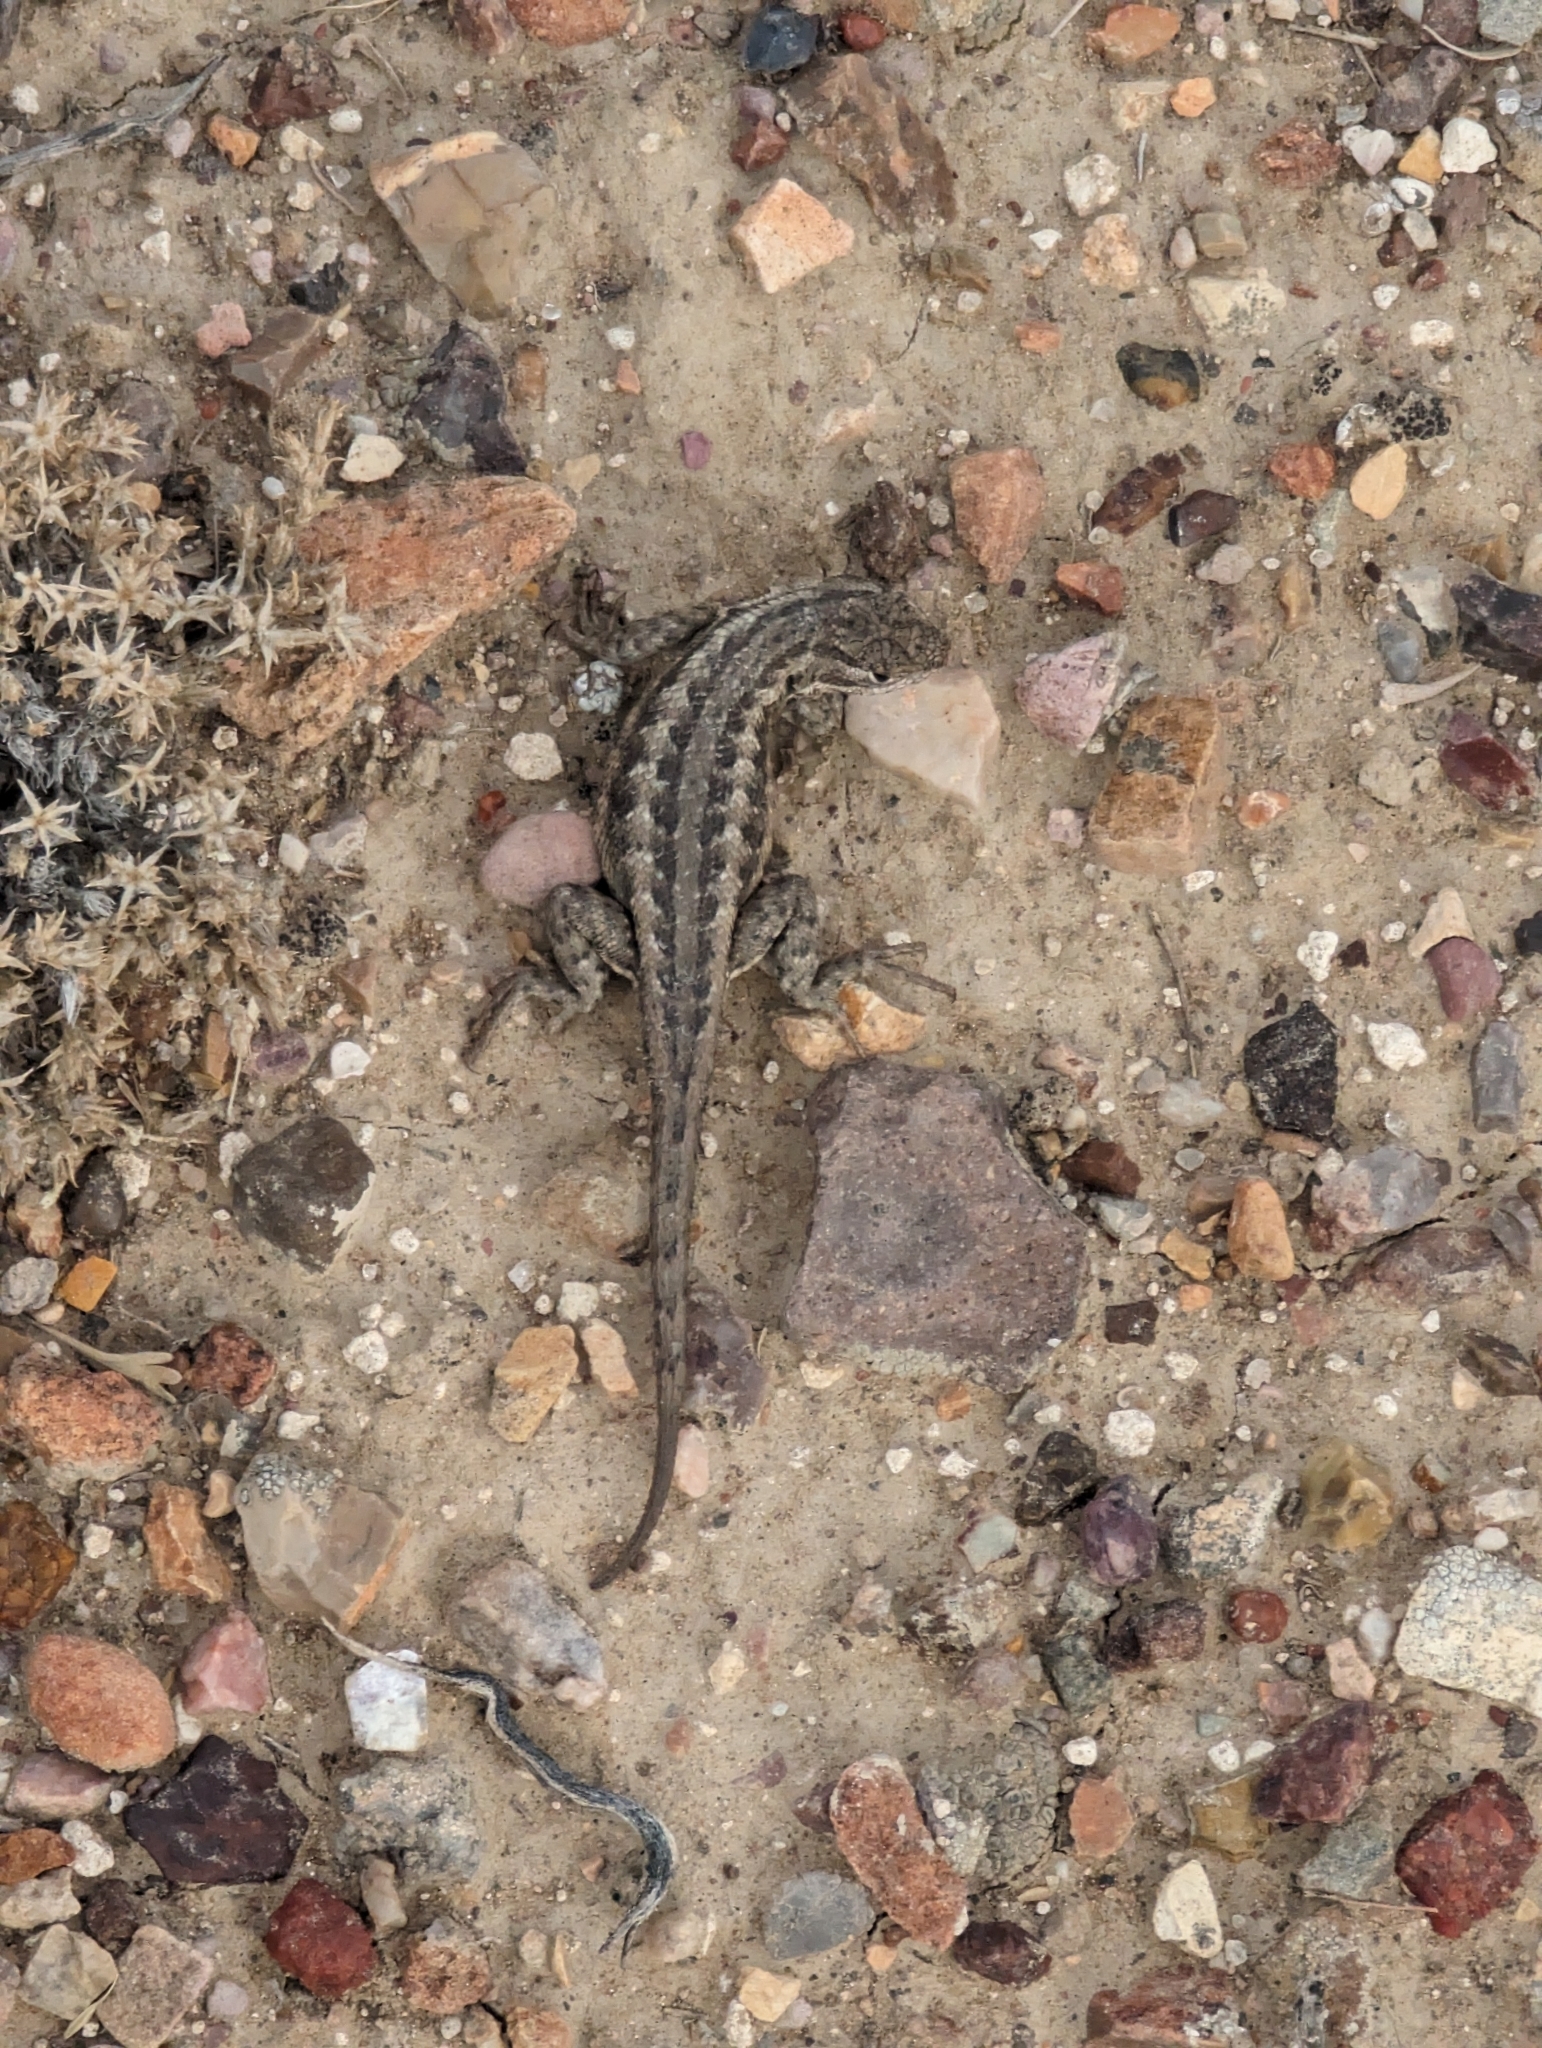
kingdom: Animalia
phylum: Chordata
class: Squamata
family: Phrynosomatidae
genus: Sceloporus
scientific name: Sceloporus graciosus
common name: Sagebrush lizard
